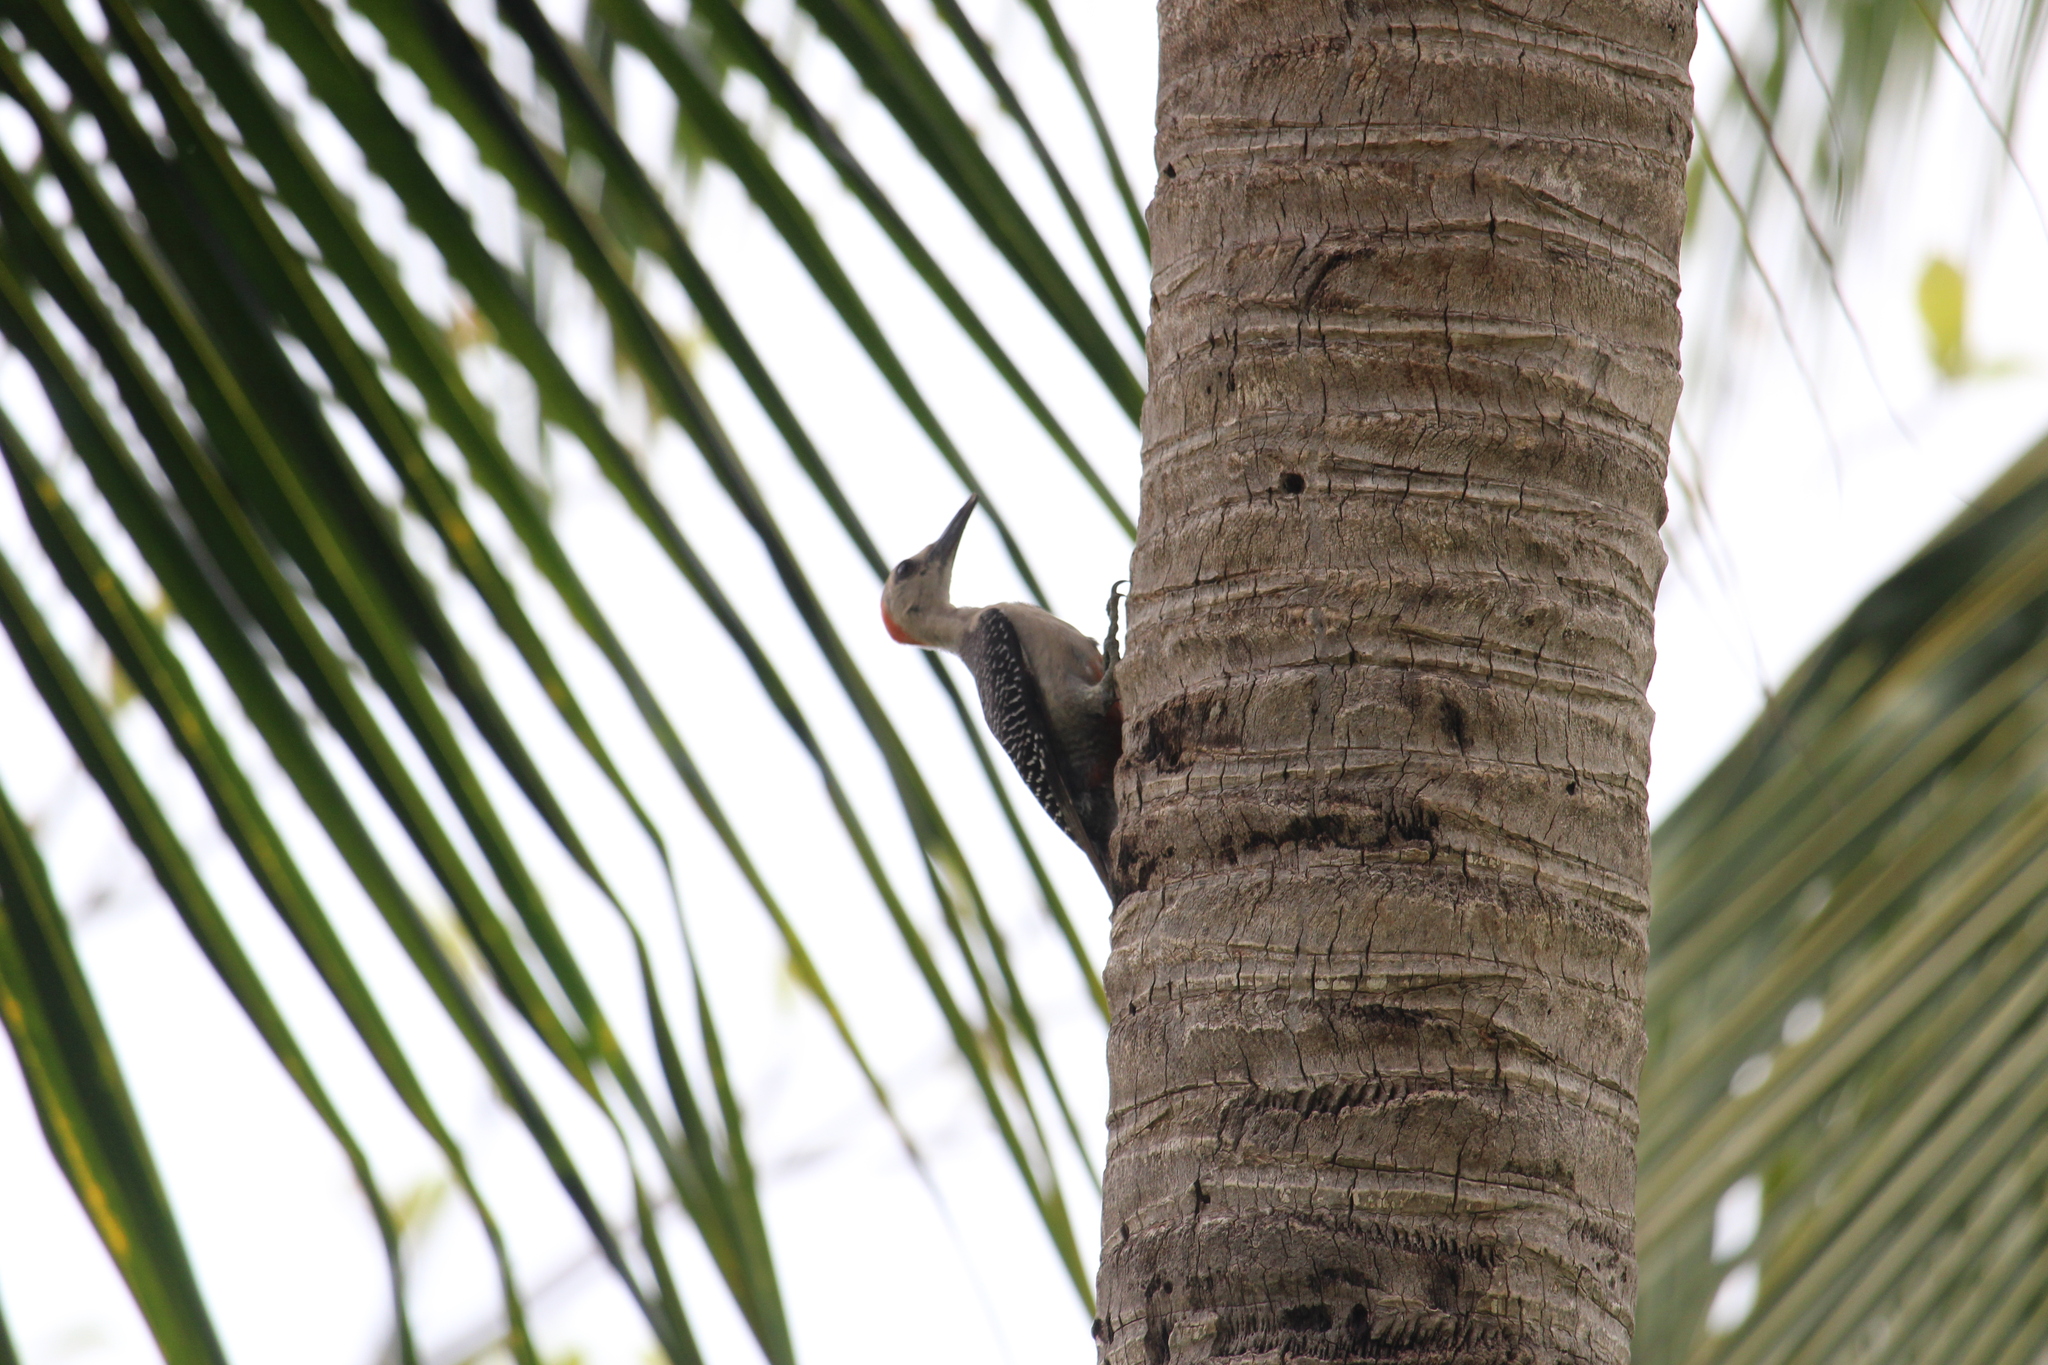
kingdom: Animalia
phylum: Chordata
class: Aves
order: Piciformes
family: Picidae
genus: Melanerpes
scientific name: Melanerpes aurifrons
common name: Golden-fronted woodpecker
